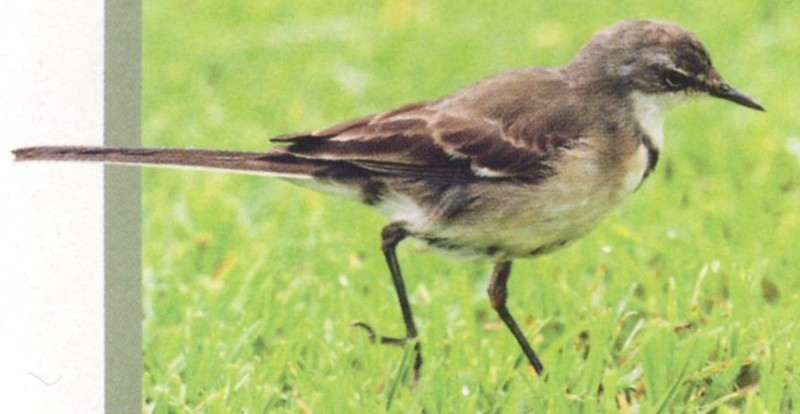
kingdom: Animalia
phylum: Chordata
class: Aves
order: Passeriformes
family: Motacillidae
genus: Motacilla
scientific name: Motacilla capensis
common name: Cape wagtail
